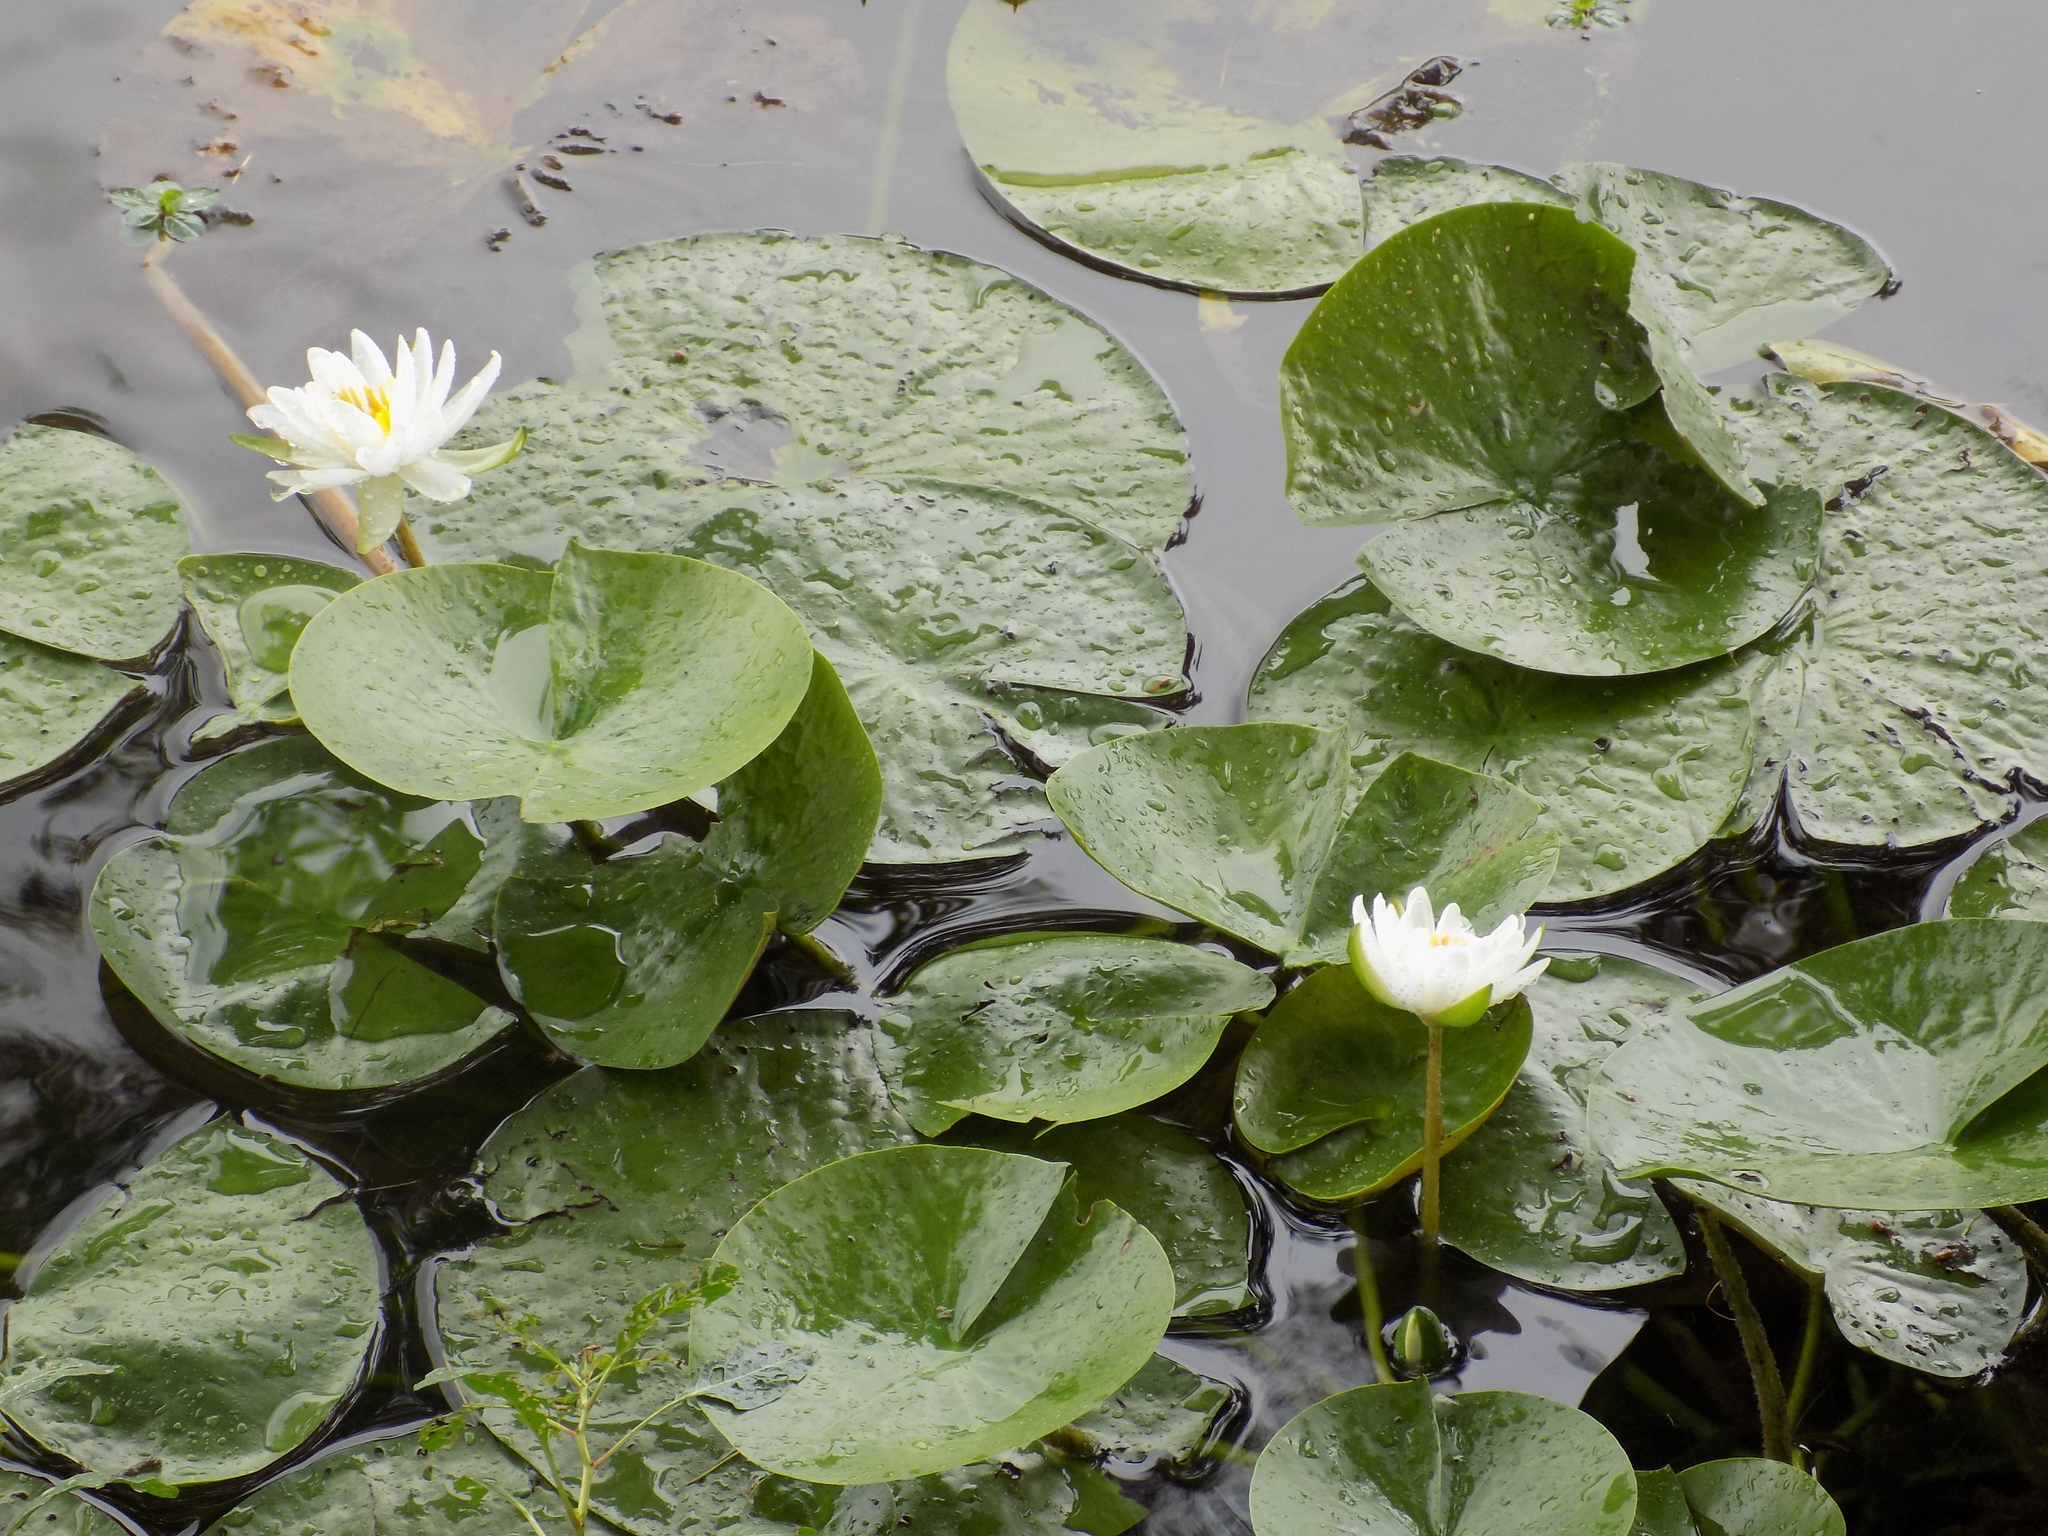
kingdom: Plantae
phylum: Tracheophyta
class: Magnoliopsida
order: Nymphaeales
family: Nymphaeaceae
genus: Nymphaea
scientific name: Nymphaea odorata
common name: Fragrant water-lily
